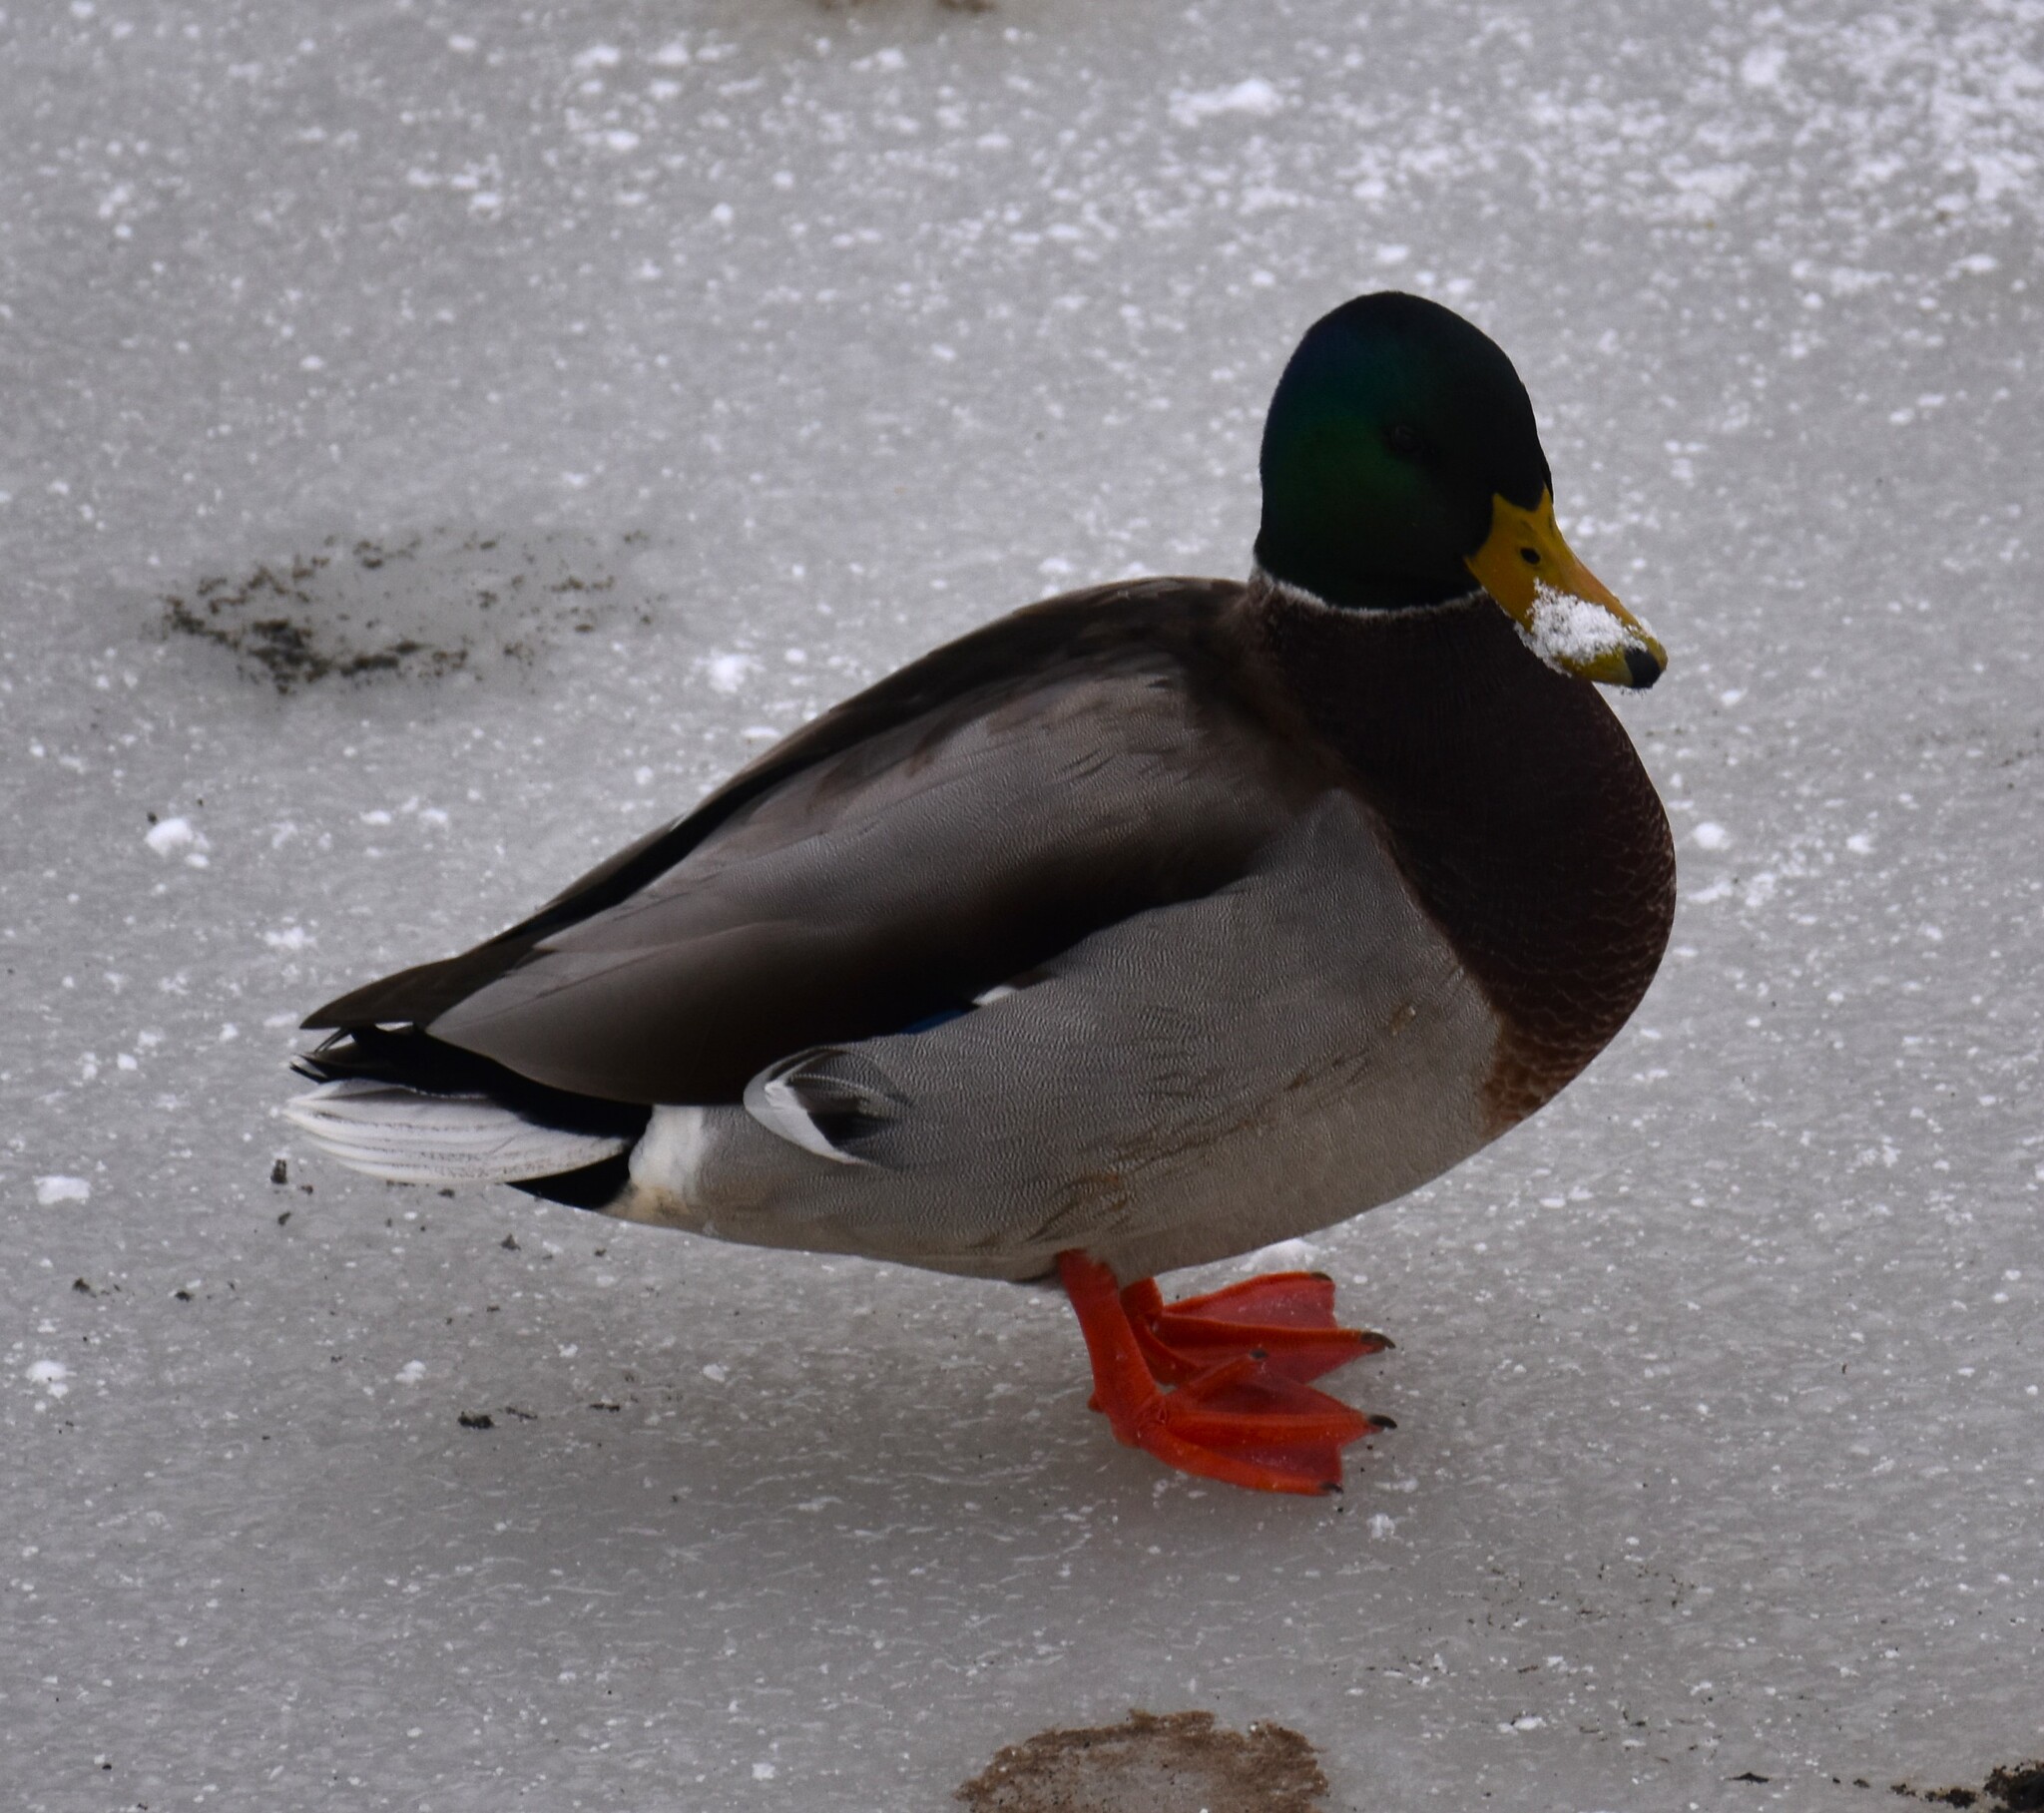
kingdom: Animalia
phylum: Chordata
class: Aves
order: Anseriformes
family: Anatidae
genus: Anas
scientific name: Anas platyrhynchos
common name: Mallard
